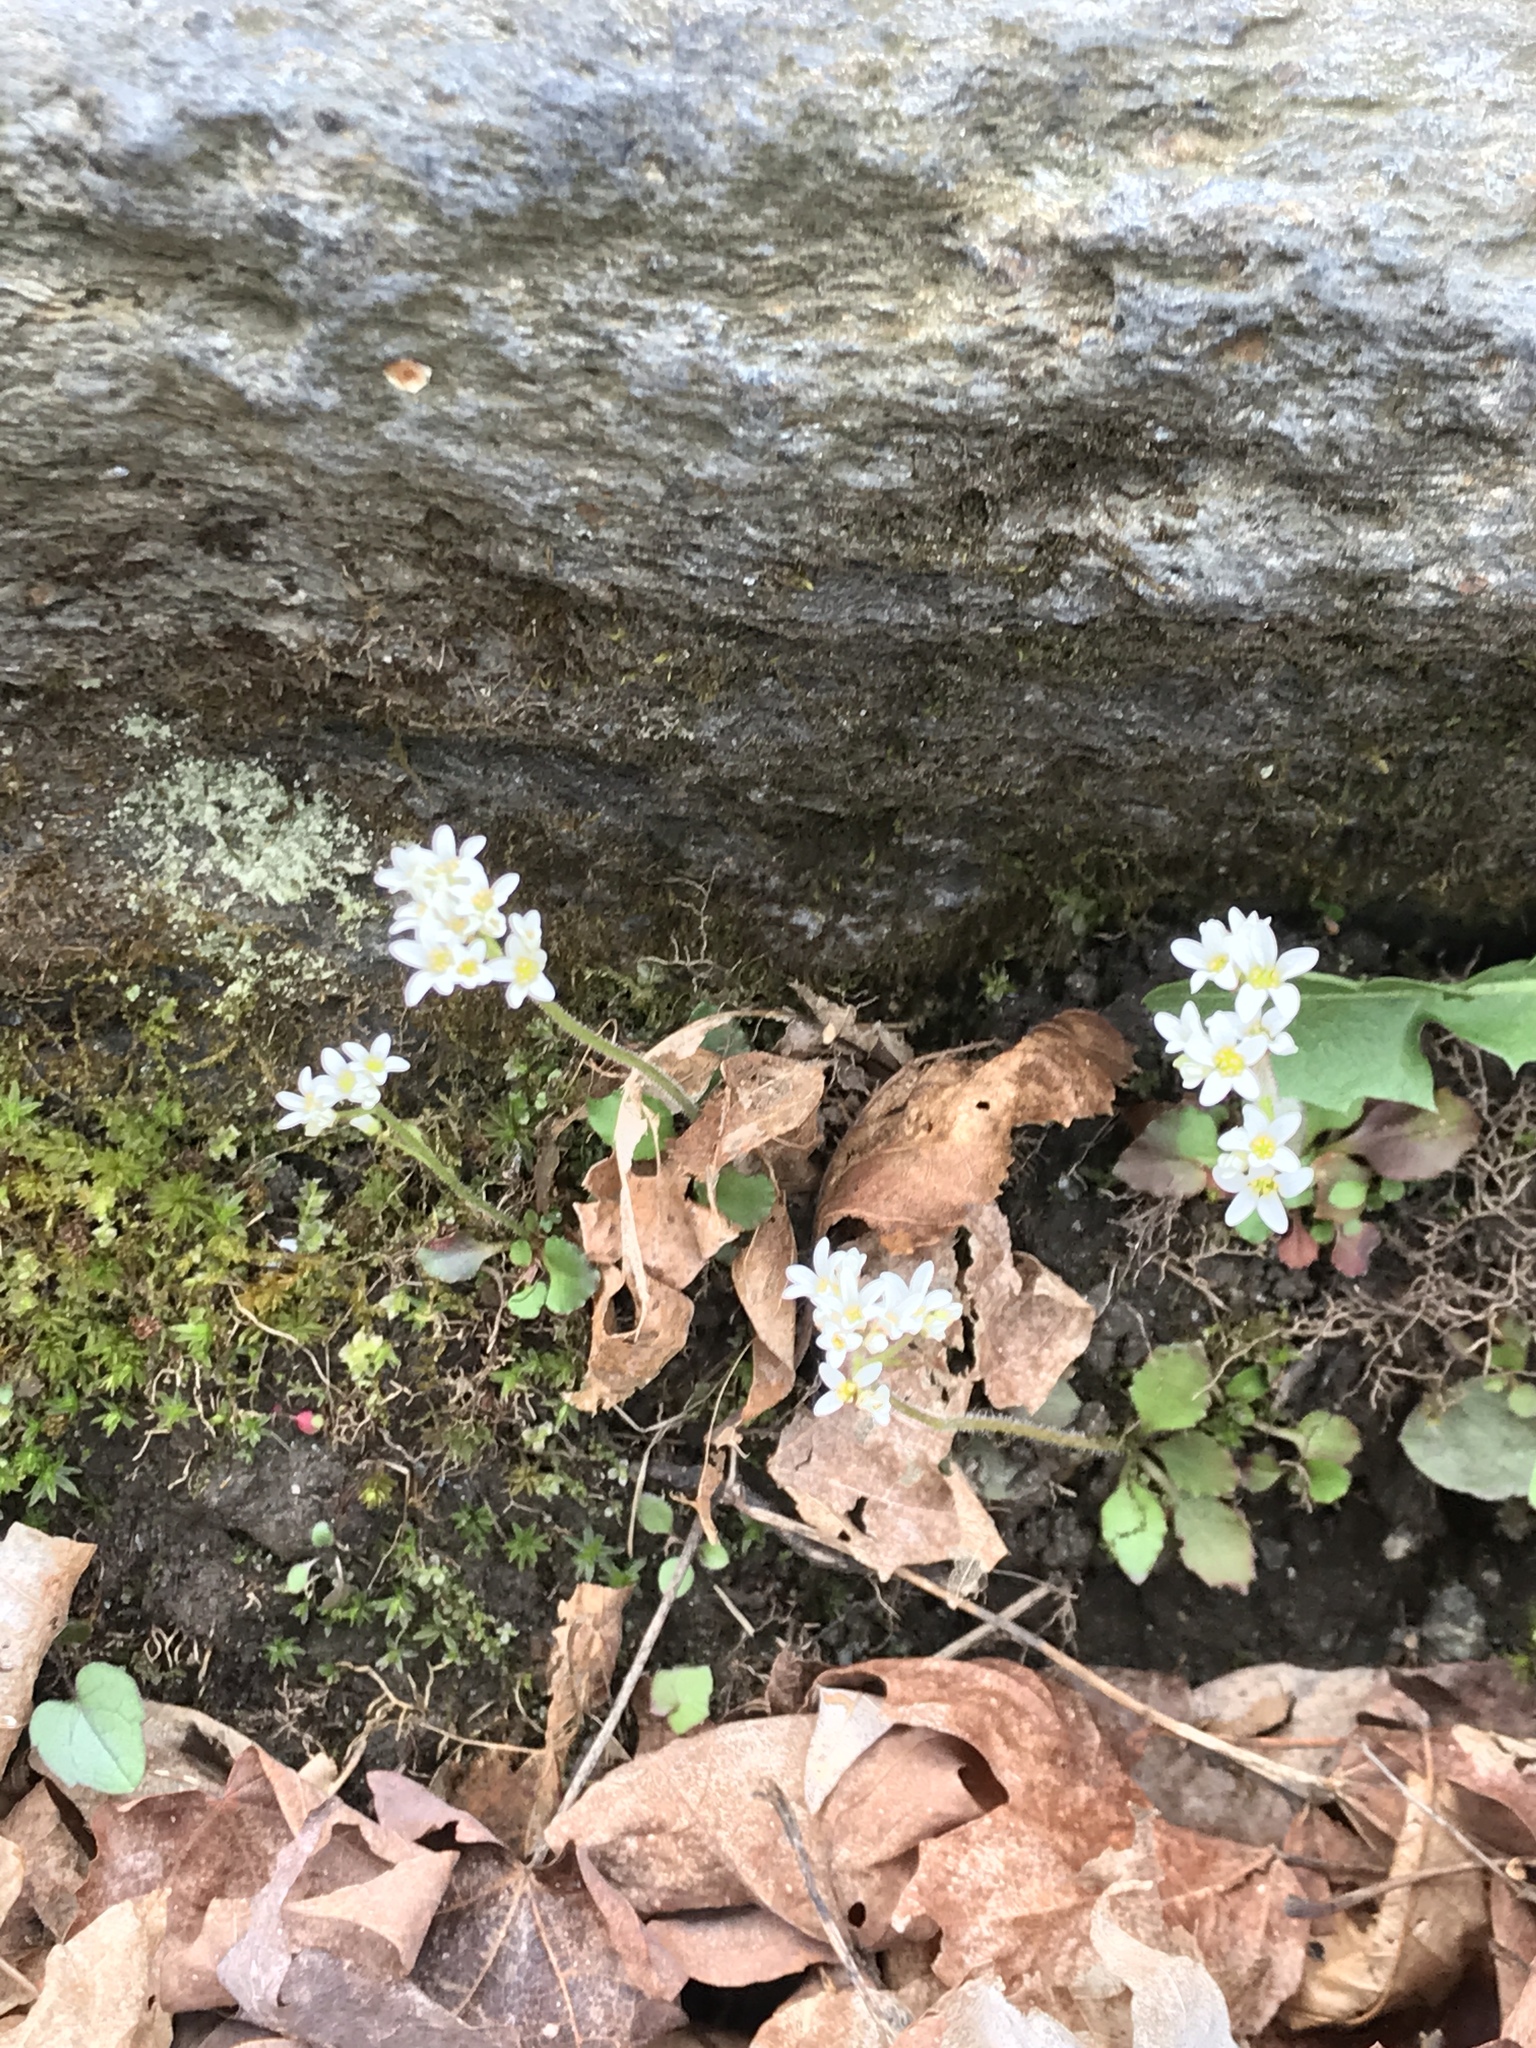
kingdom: Plantae
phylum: Tracheophyta
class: Magnoliopsida
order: Saxifragales
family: Saxifragaceae
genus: Micranthes
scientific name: Micranthes virginiensis
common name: Early saxifrage
